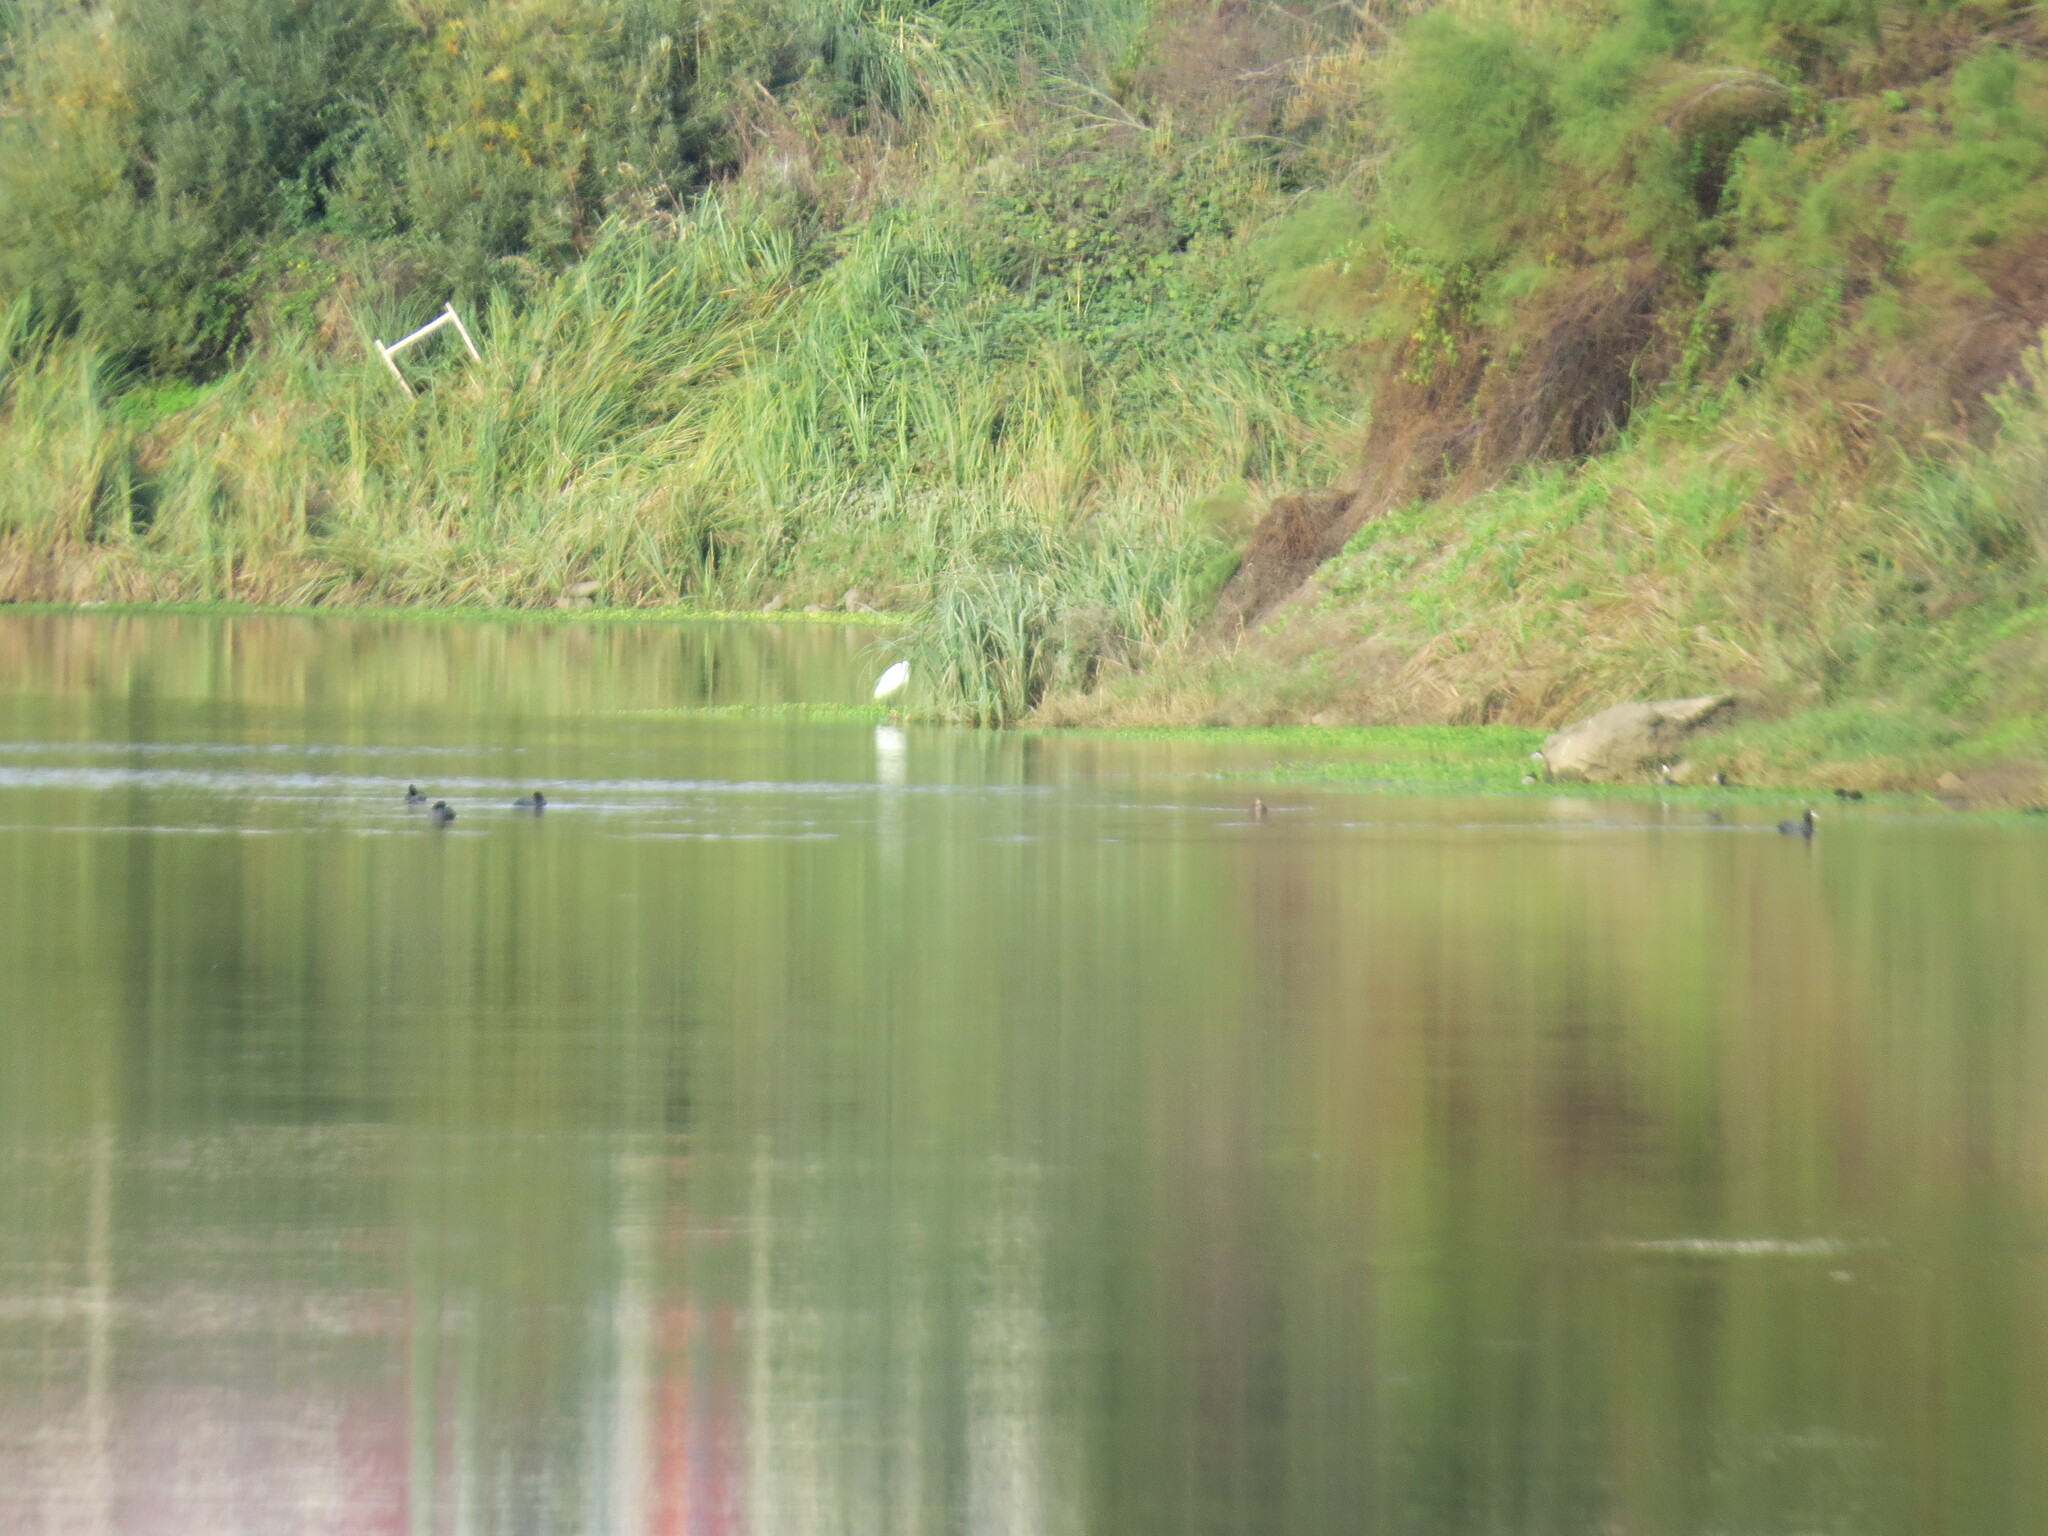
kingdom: Animalia
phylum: Chordata
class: Aves
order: Pelecaniformes
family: Ardeidae
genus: Egretta
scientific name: Egretta garzetta
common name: Little egret
